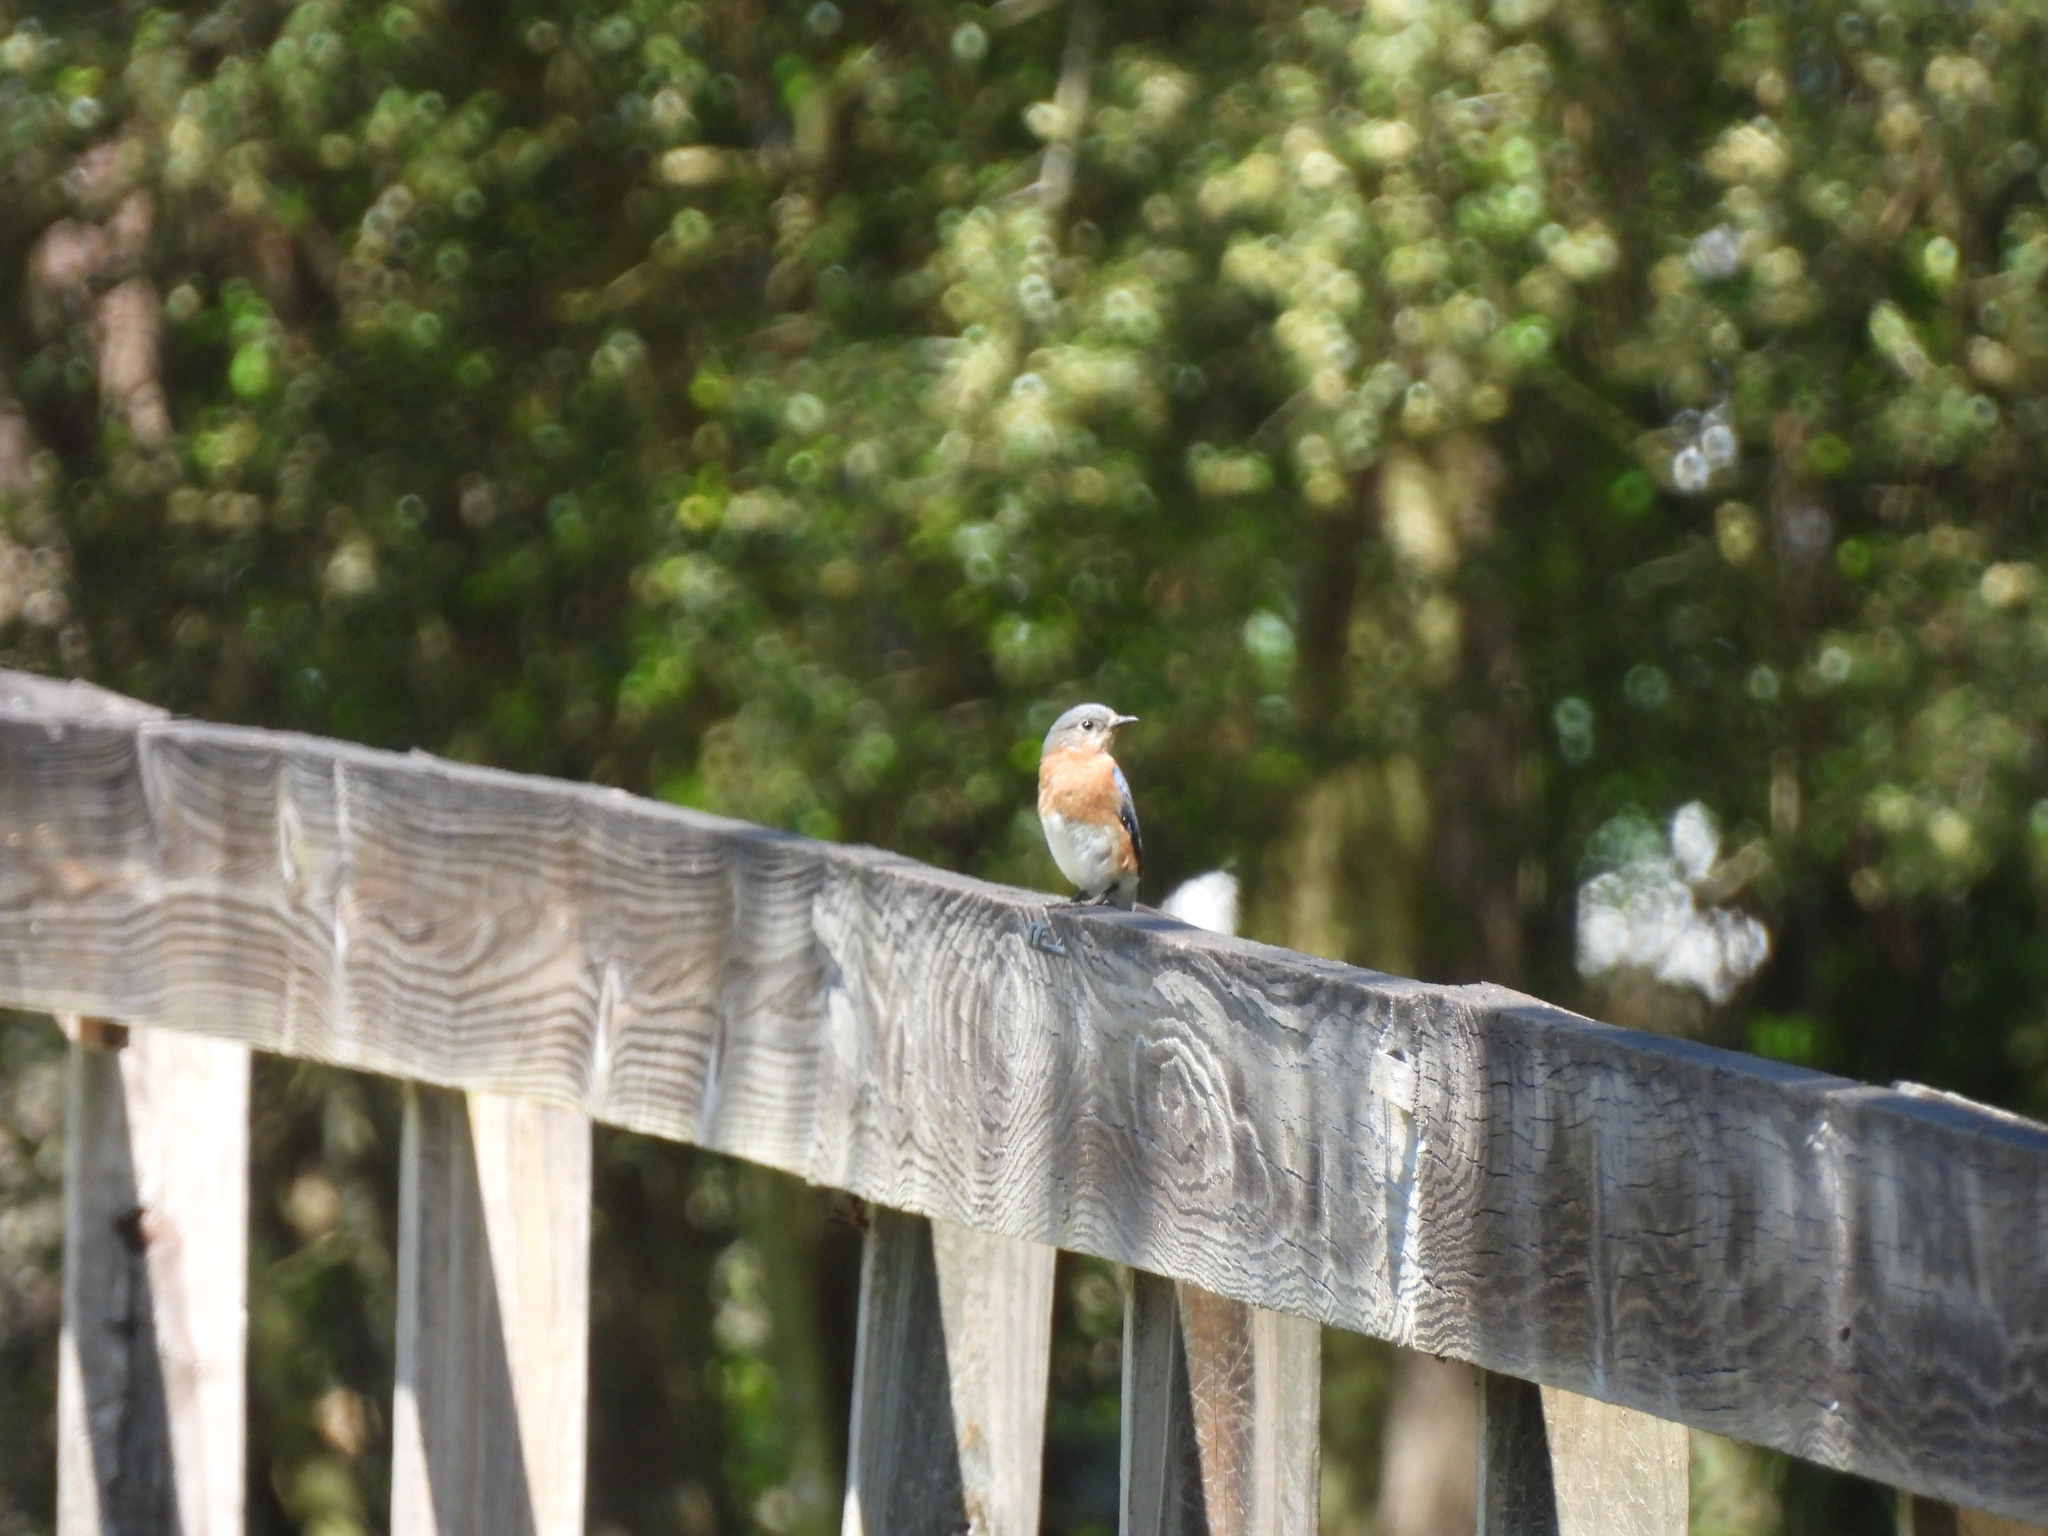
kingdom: Animalia
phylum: Chordata
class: Aves
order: Passeriformes
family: Turdidae
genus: Sialia
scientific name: Sialia sialis
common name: Eastern bluebird
